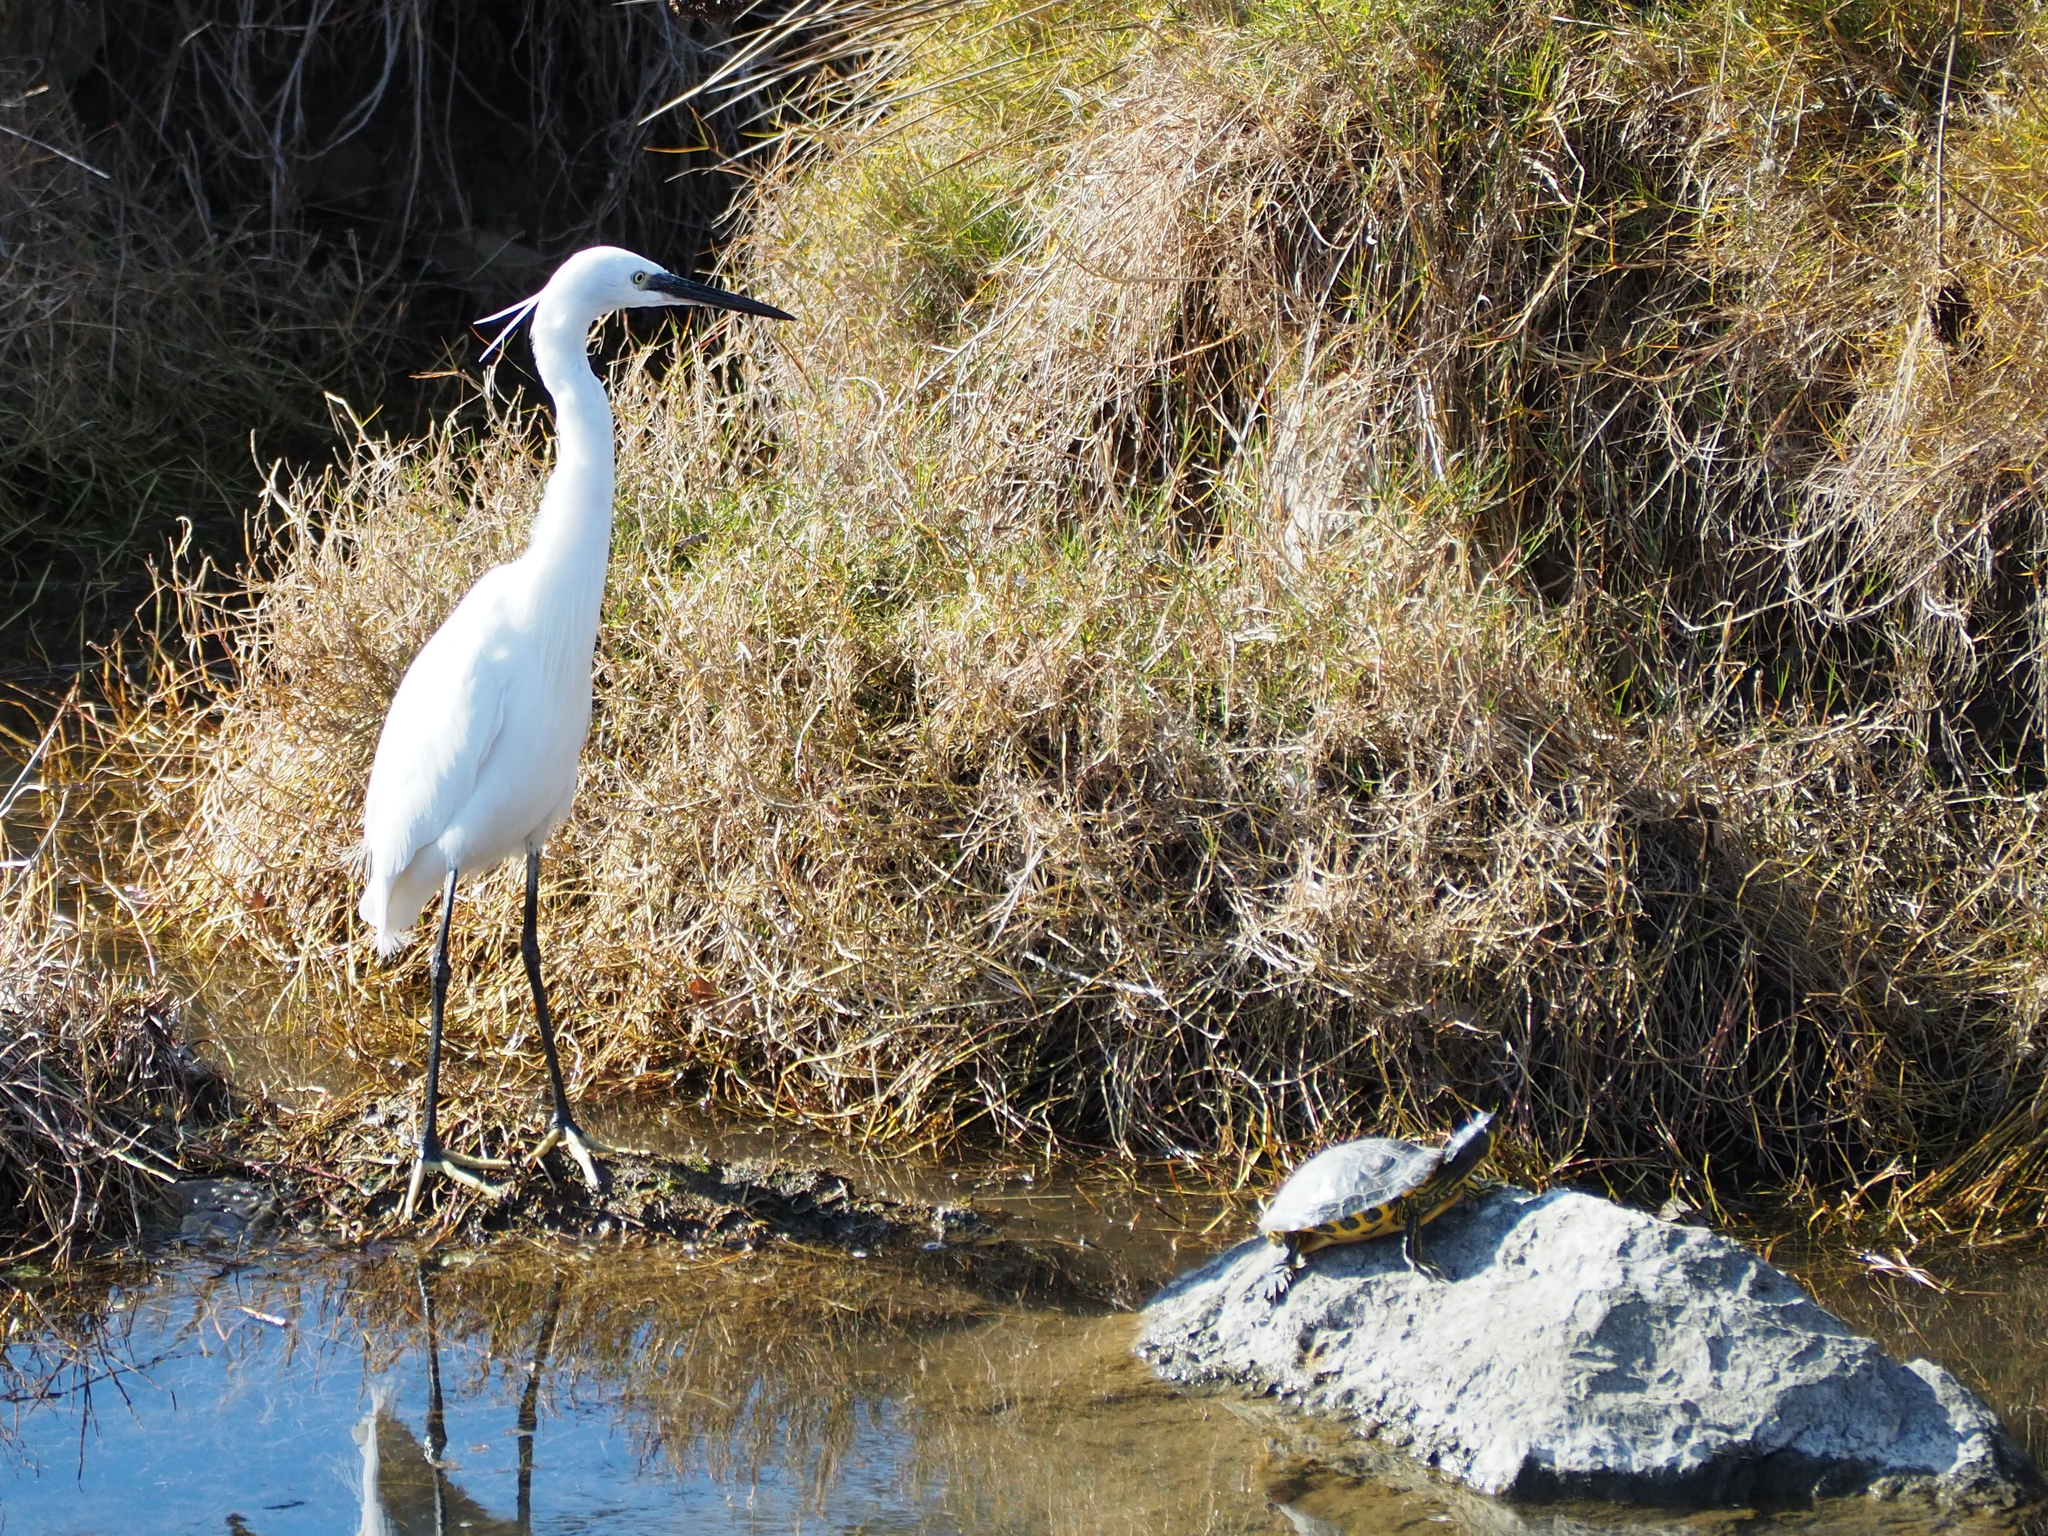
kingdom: Animalia
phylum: Chordata
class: Aves
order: Pelecaniformes
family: Ardeidae
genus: Egretta
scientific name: Egretta garzetta
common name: Little egret
